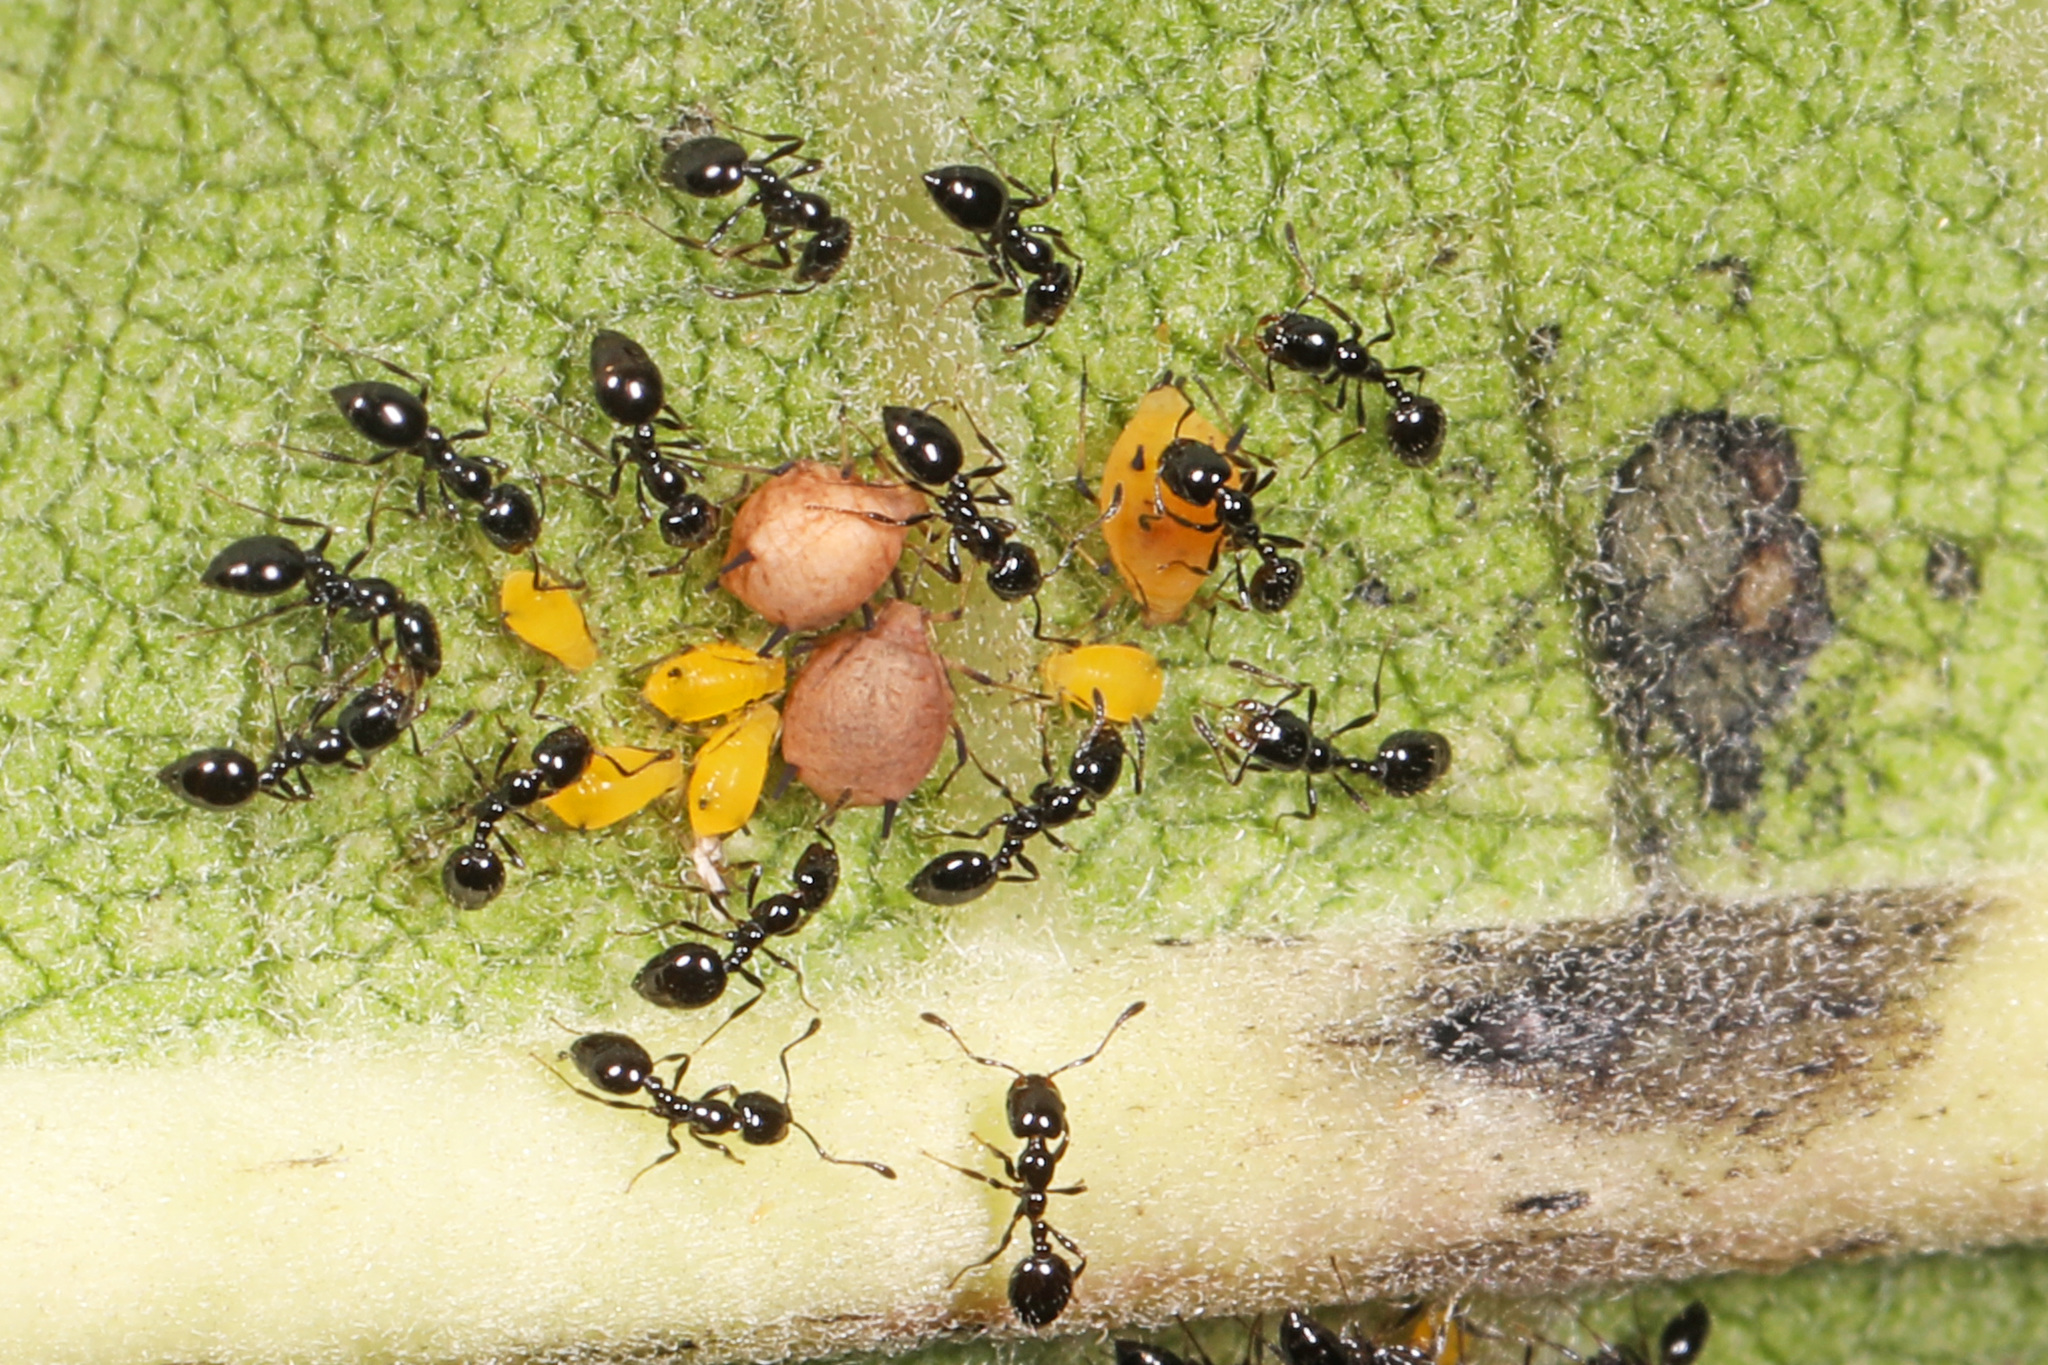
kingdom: Animalia
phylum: Arthropoda
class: Insecta
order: Hemiptera
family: Aphididae
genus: Aphis
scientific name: Aphis nerii
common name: Oleander aphid
